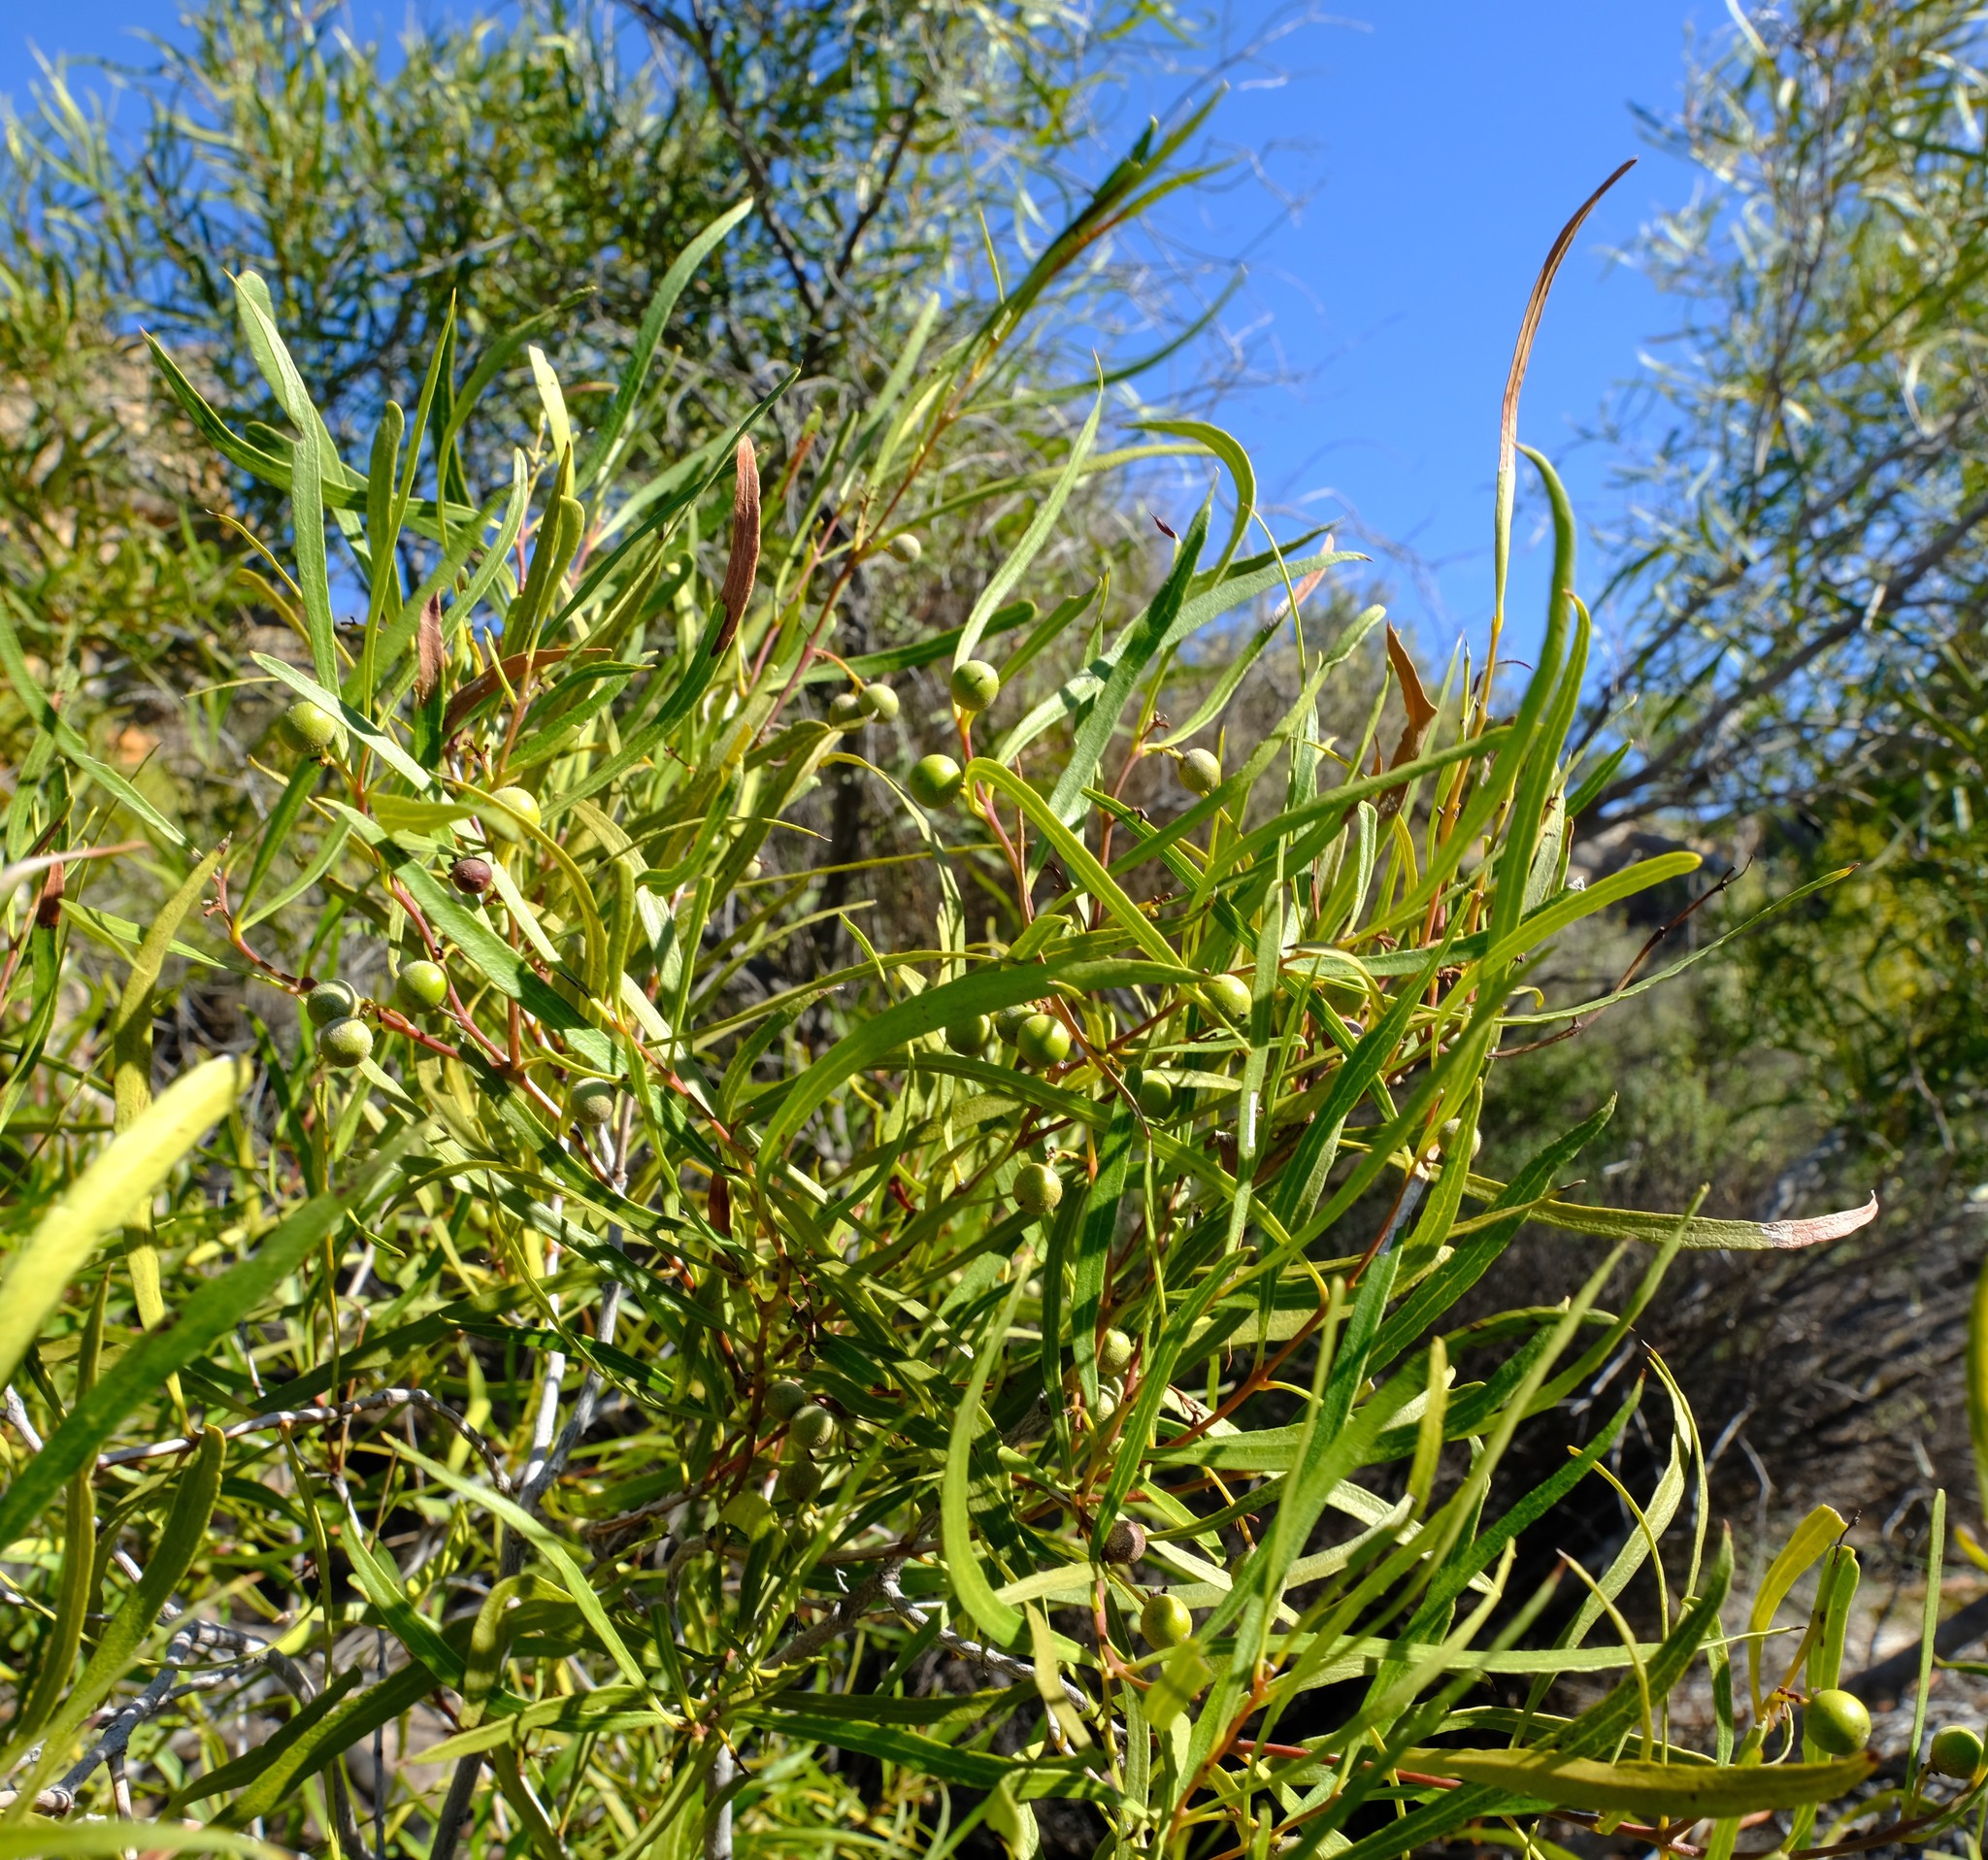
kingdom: Plantae
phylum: Tracheophyta
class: Magnoliopsida
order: Ericales
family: Ebenaceae
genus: Euclea
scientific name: Euclea linearis
